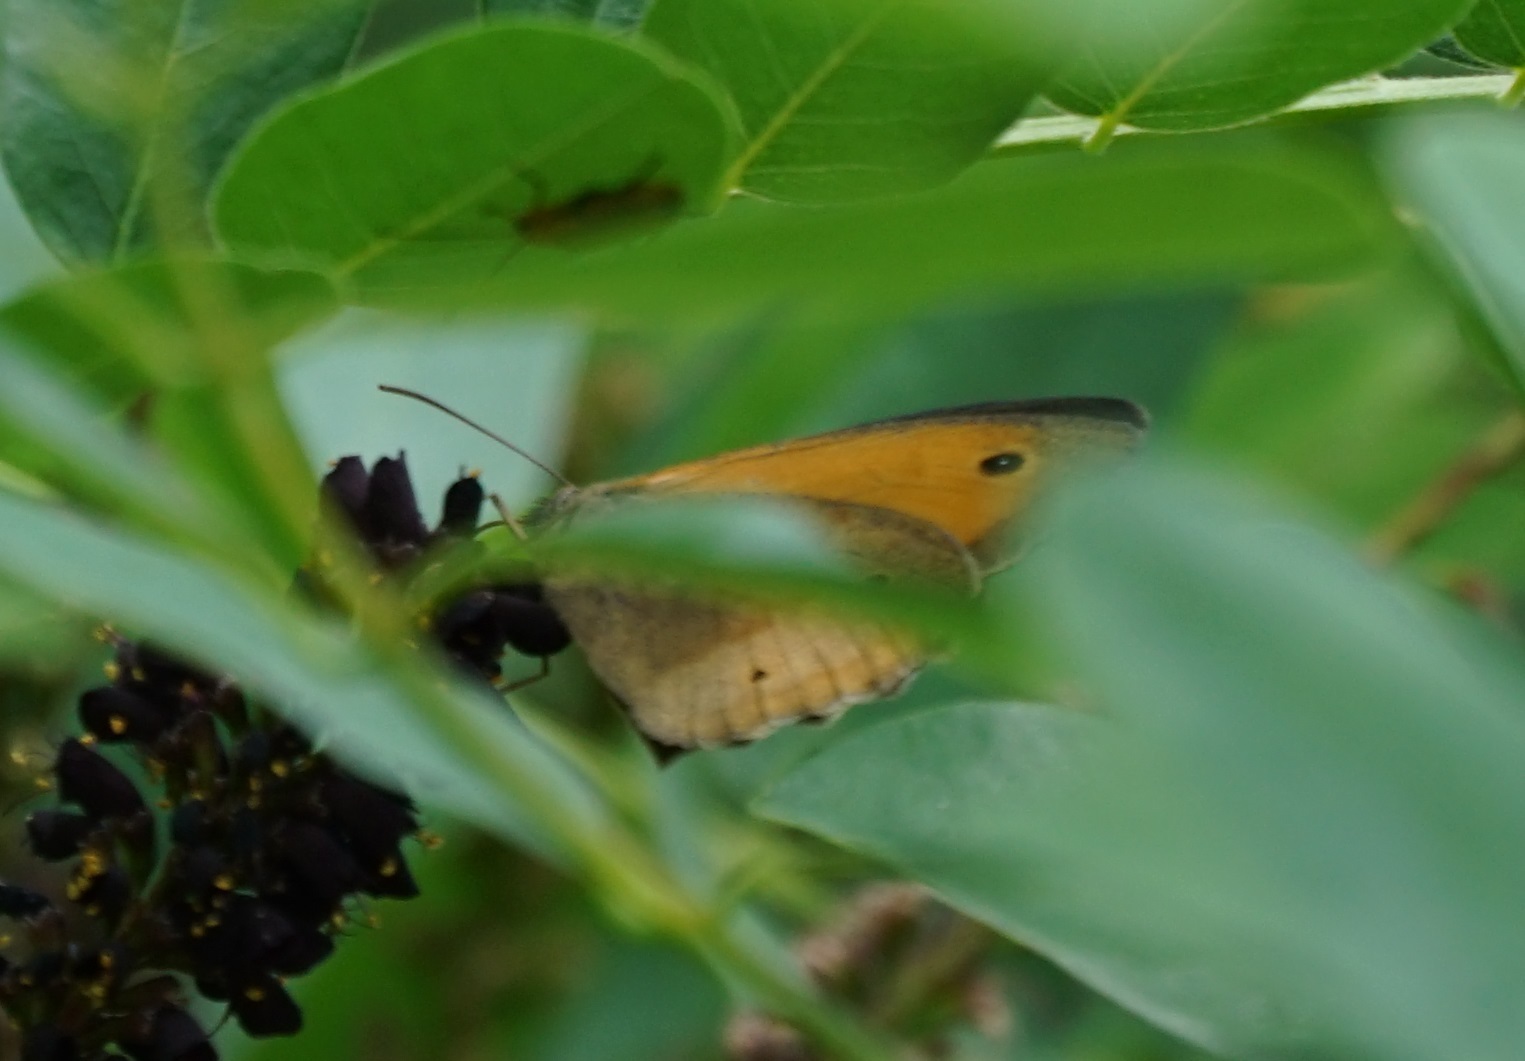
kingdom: Animalia
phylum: Arthropoda
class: Insecta
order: Lepidoptera
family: Nymphalidae
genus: Maniola
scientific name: Maniola jurtina
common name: Meadow brown
